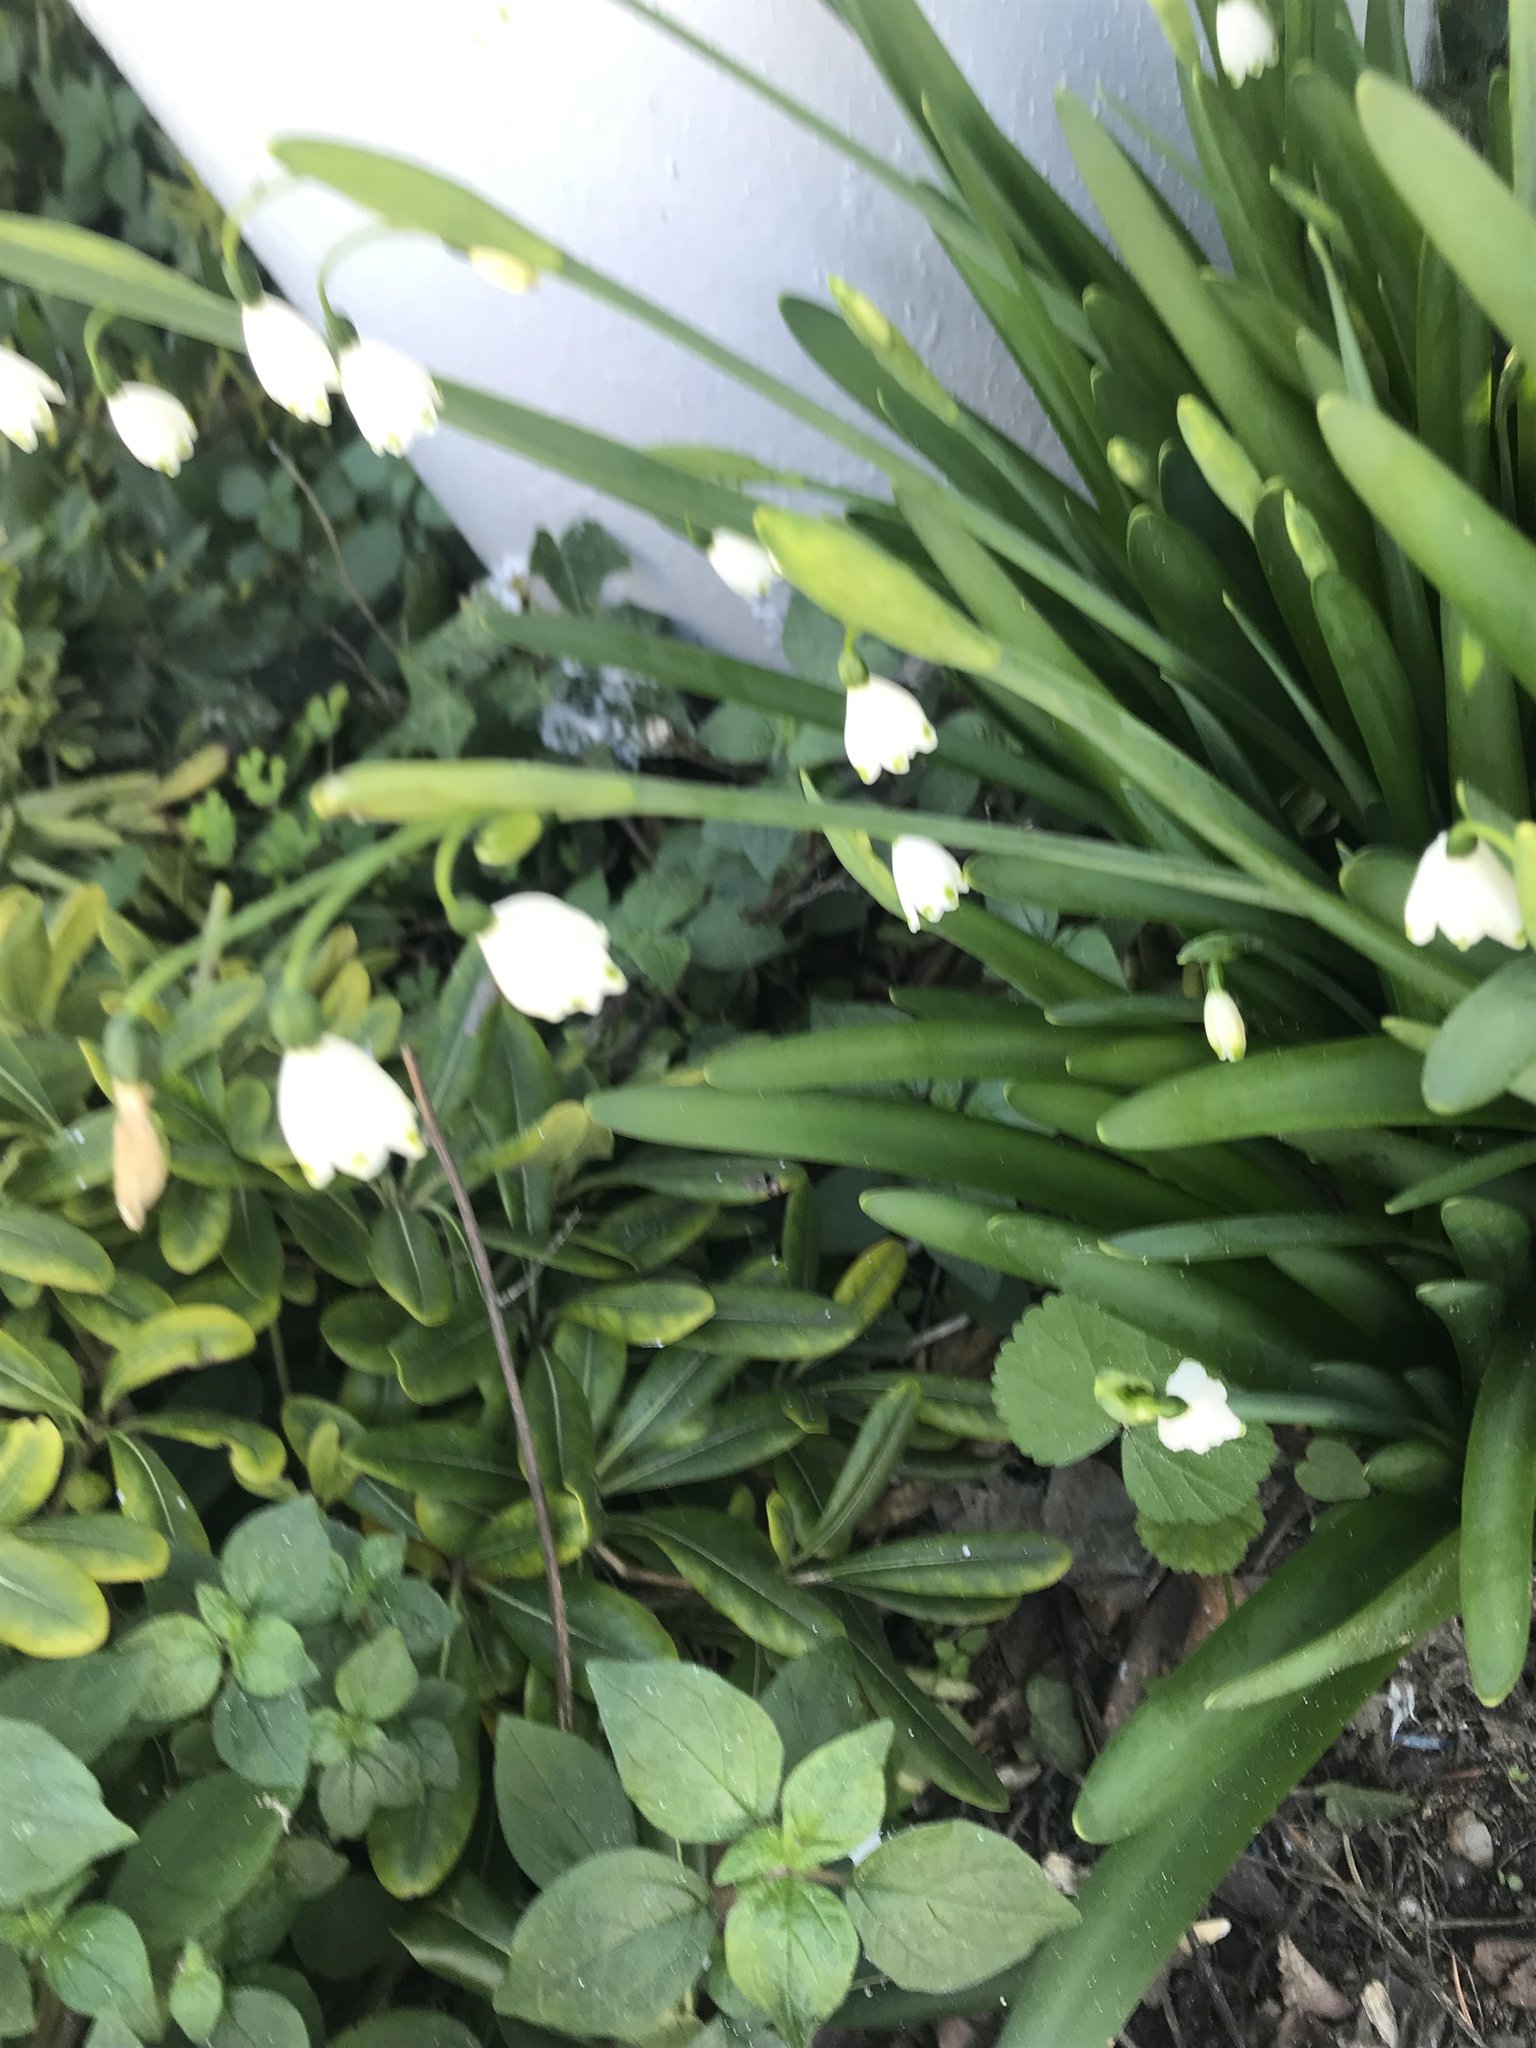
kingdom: Plantae
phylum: Tracheophyta
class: Liliopsida
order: Asparagales
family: Amaryllidaceae
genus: Leucojum
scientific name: Leucojum aestivum
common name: Summer snowflake
